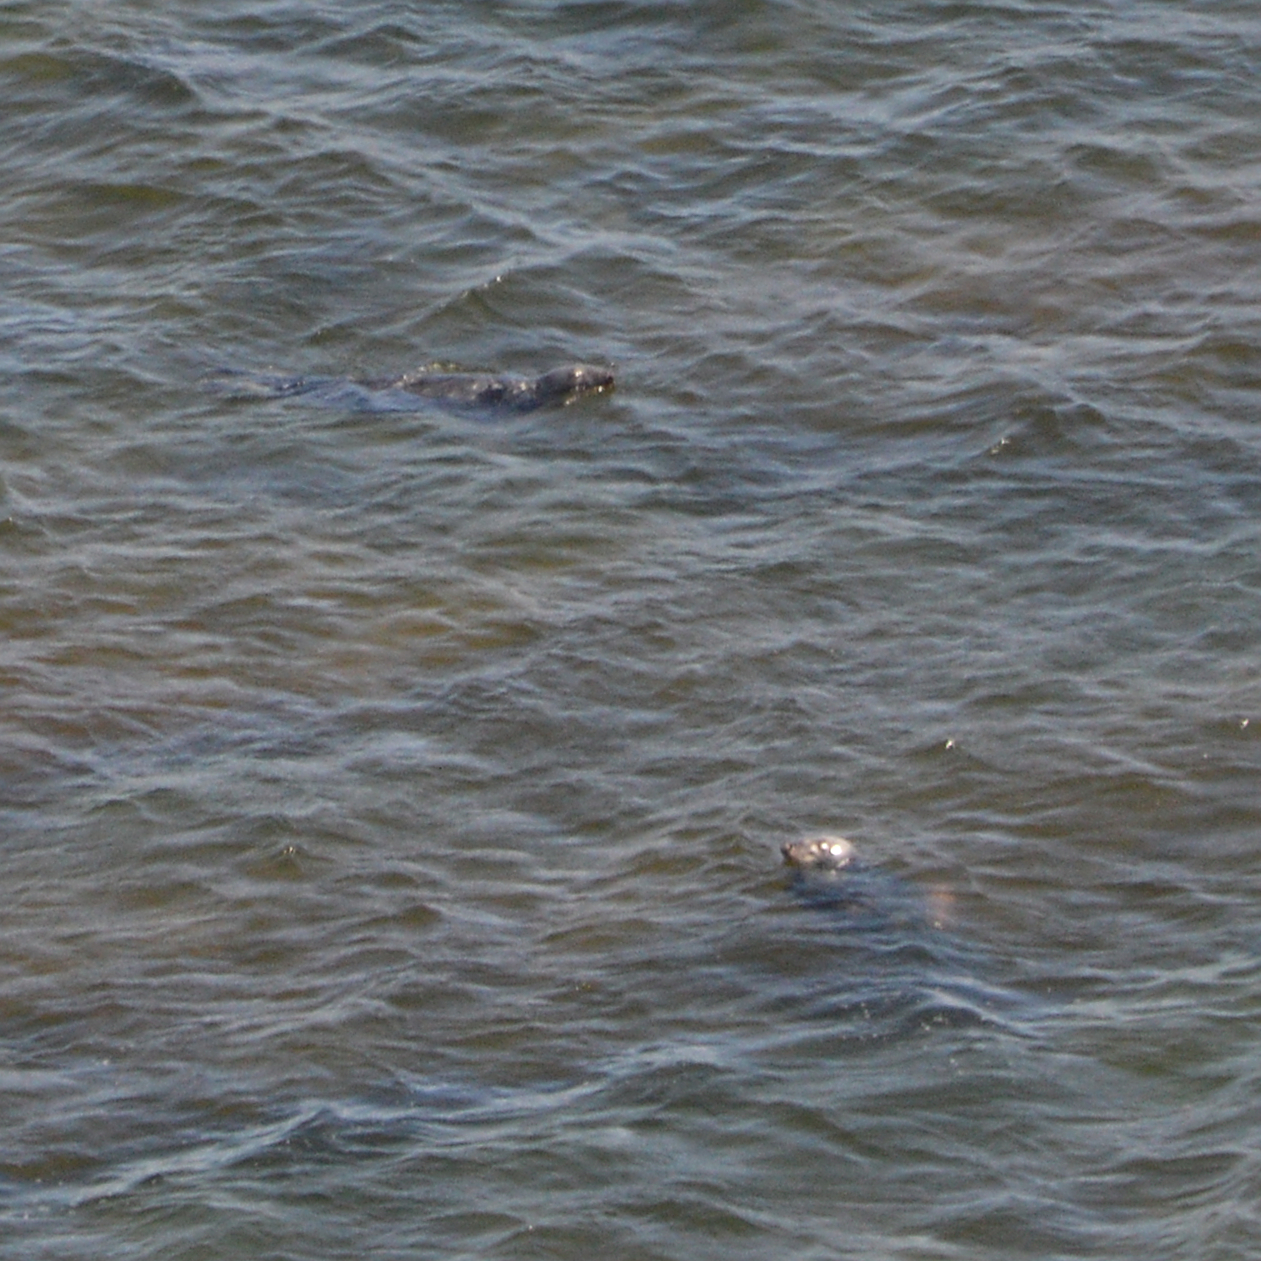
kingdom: Animalia
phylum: Chordata
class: Mammalia
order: Carnivora
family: Phocidae
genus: Halichoerus
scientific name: Halichoerus grypus
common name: Grey seal
